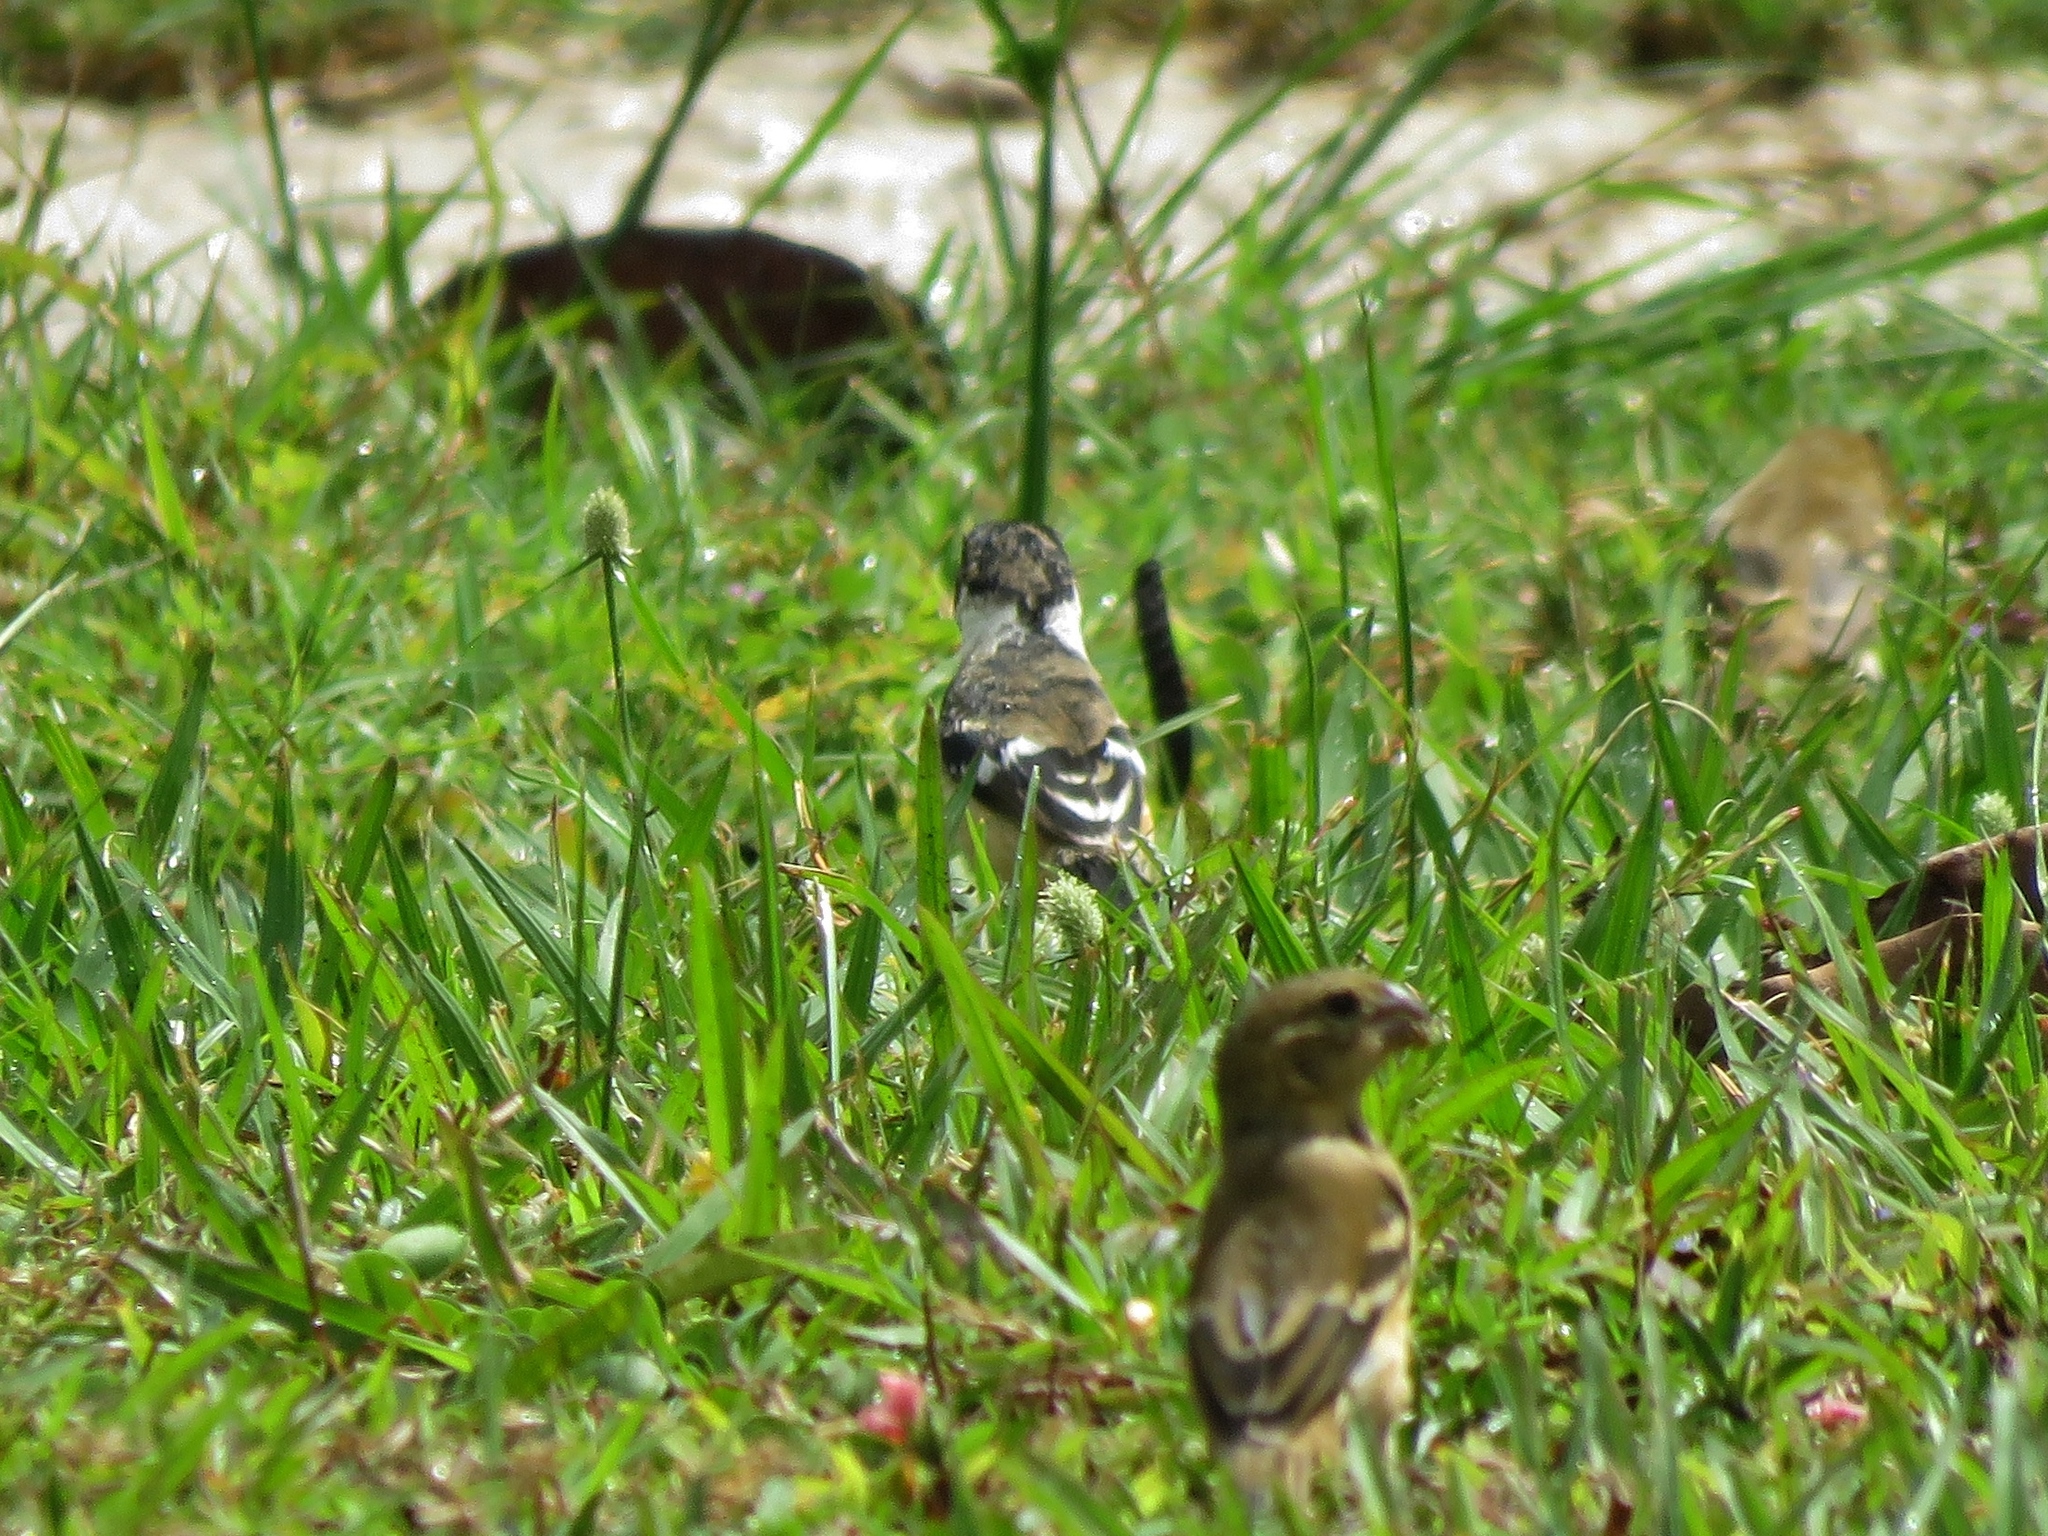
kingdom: Animalia
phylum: Chordata
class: Aves
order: Passeriformes
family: Thraupidae
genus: Sporophila
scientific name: Sporophila morelleti
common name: Morelet's seedeater
